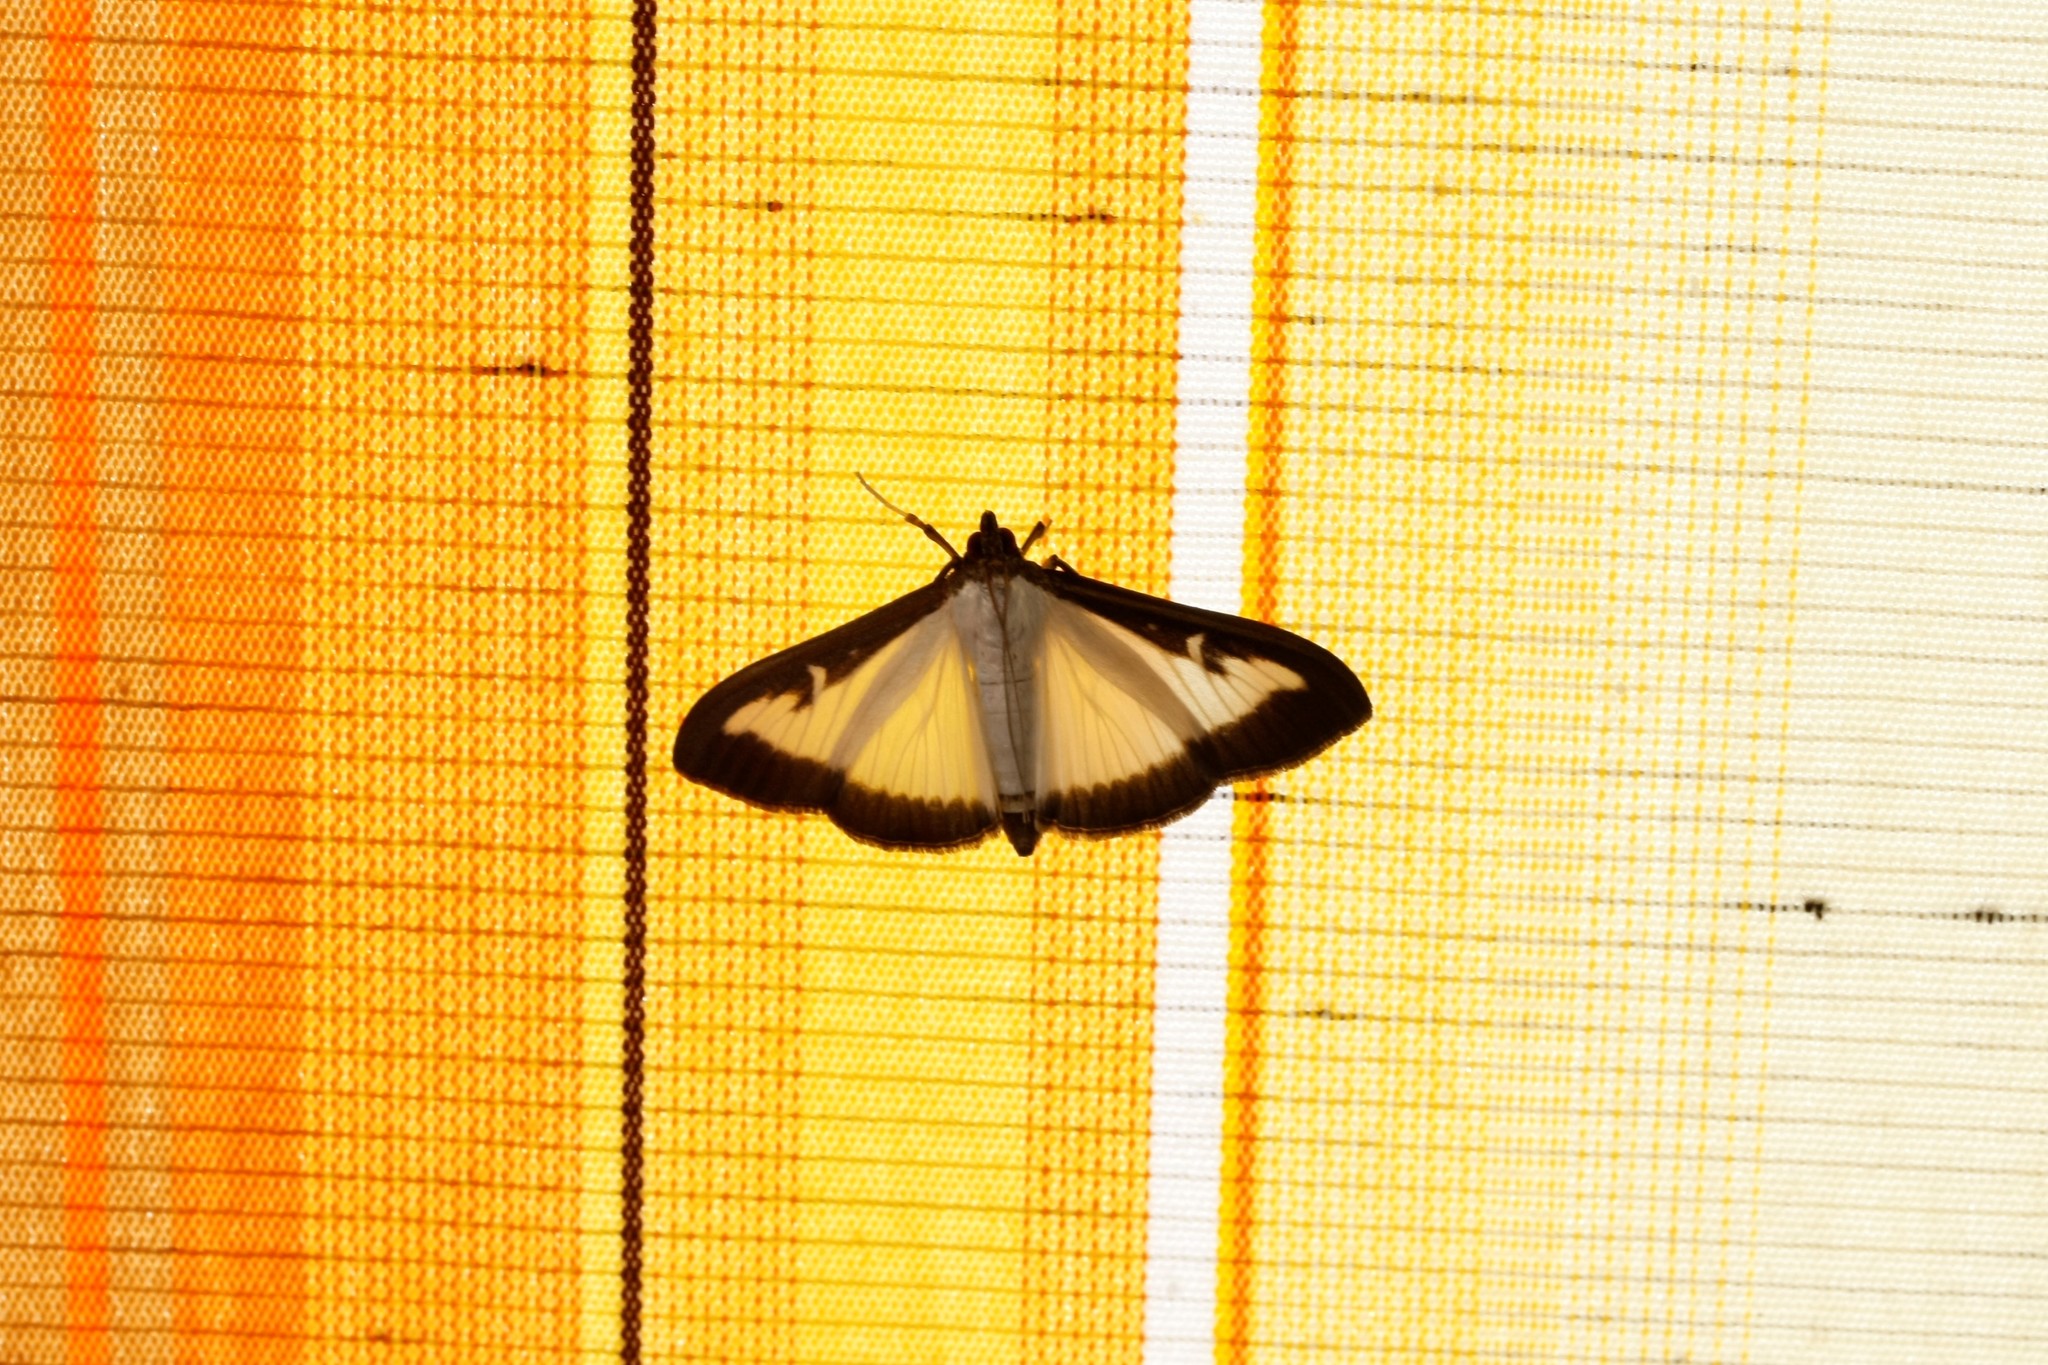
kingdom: Animalia
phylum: Arthropoda
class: Insecta
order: Lepidoptera
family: Crambidae
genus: Cydalima
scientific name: Cydalima perspectalis
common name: Box tree moth
